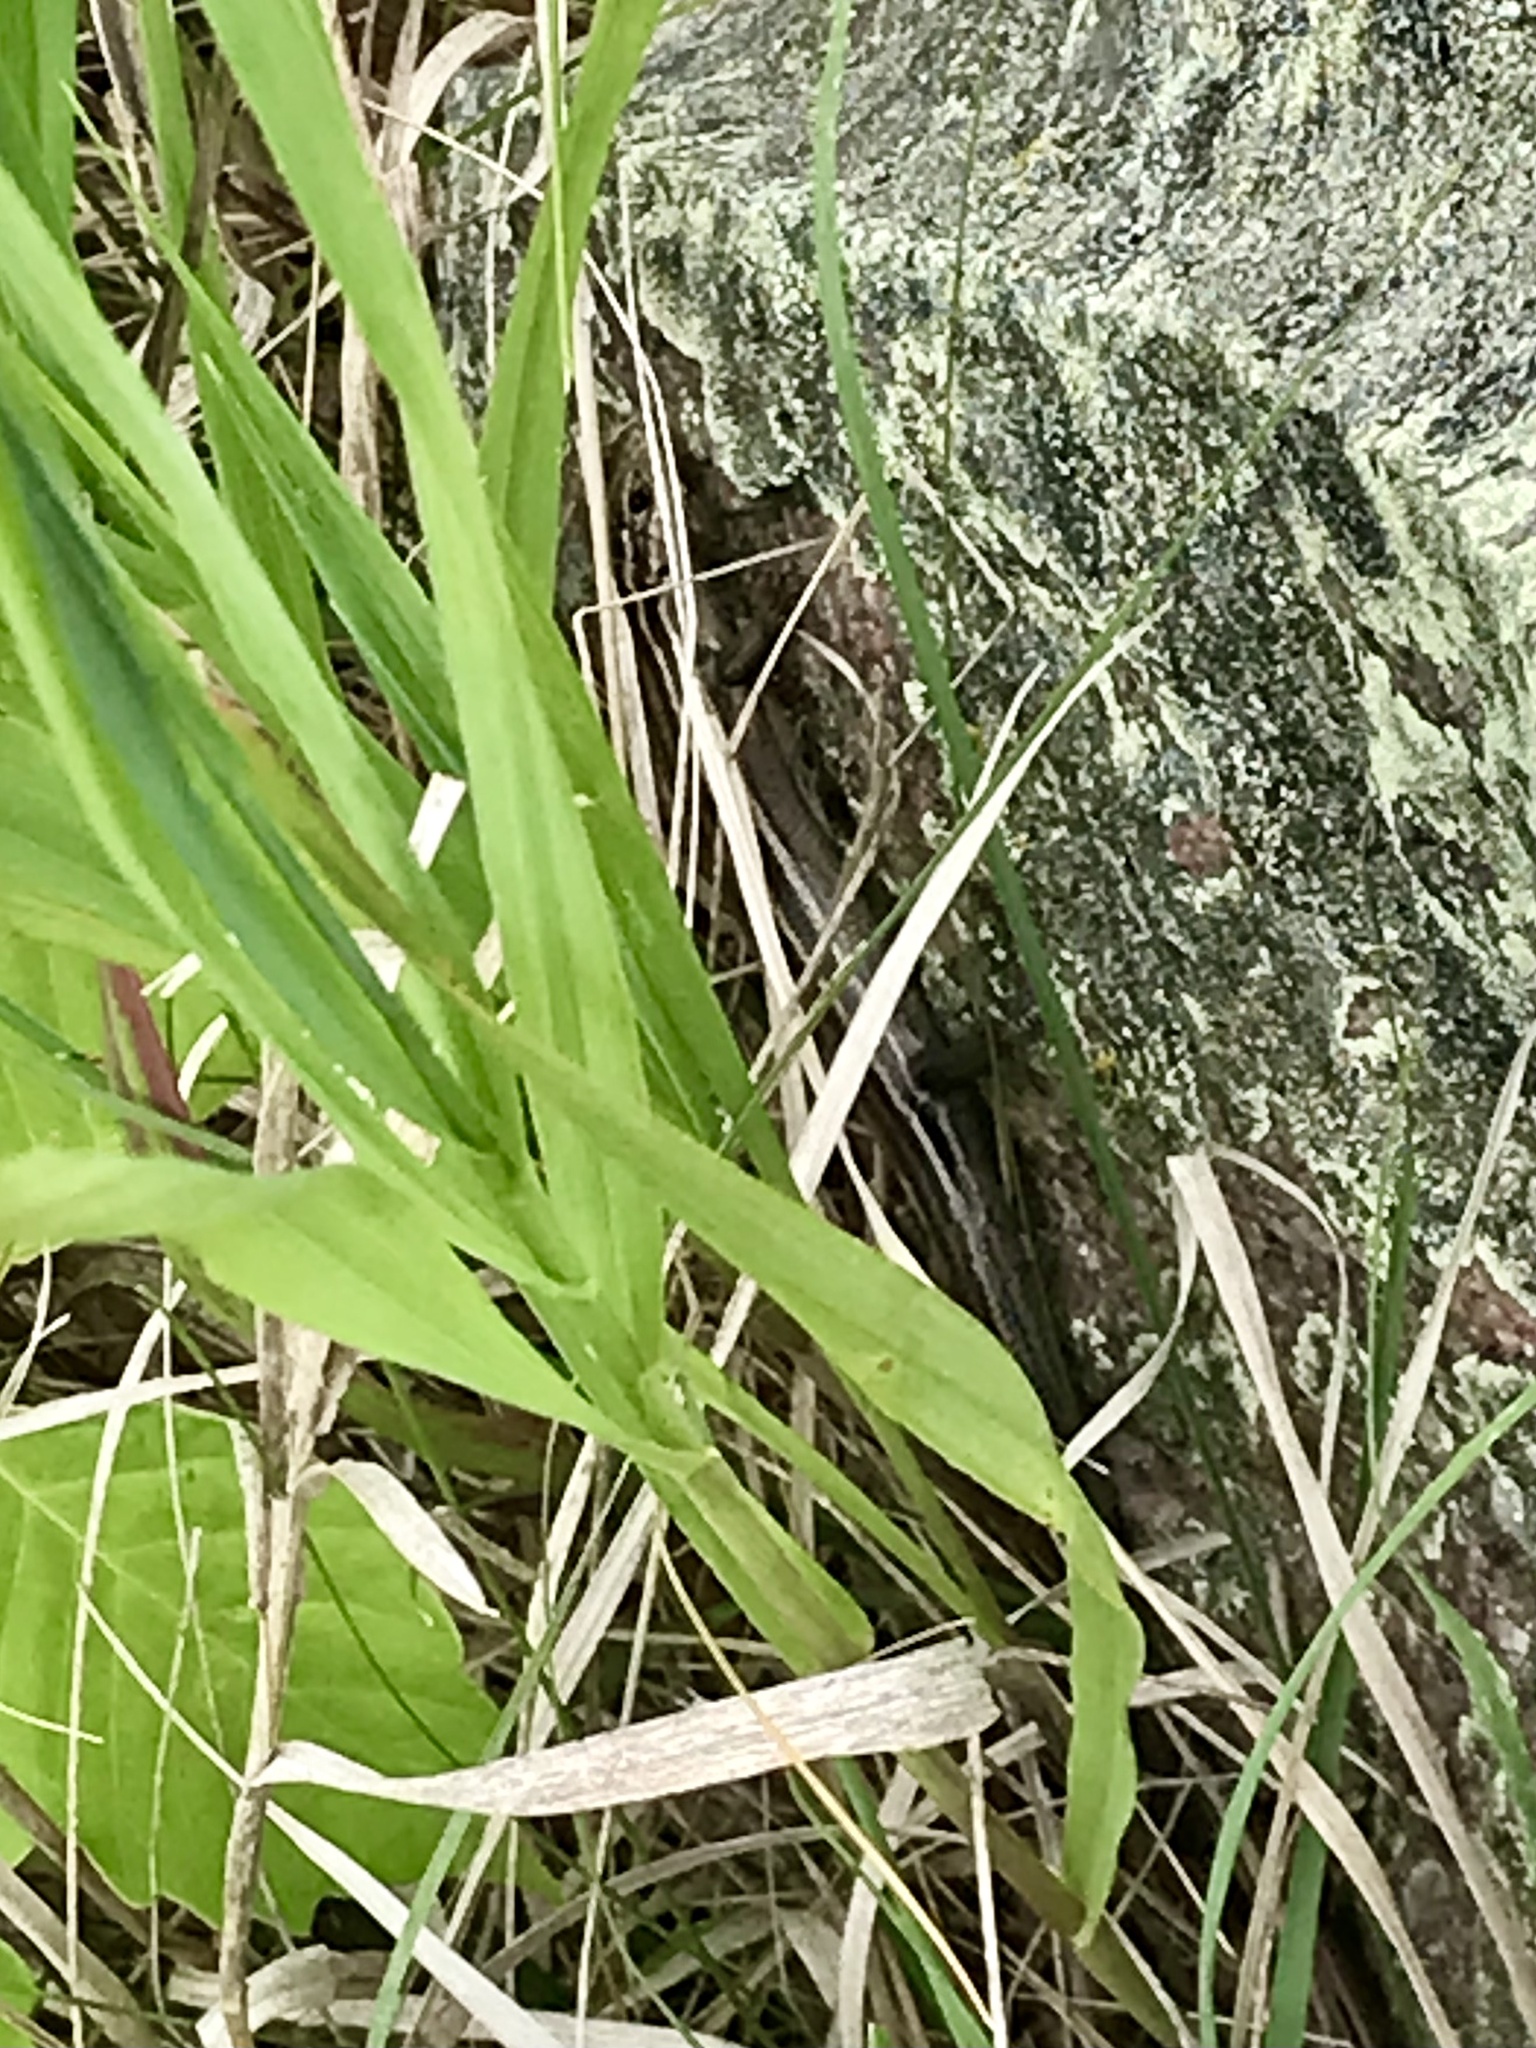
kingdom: Animalia
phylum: Chordata
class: Squamata
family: Scincidae
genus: Plestiodon
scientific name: Plestiodon septentrionalis
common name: Northern prairie skink
